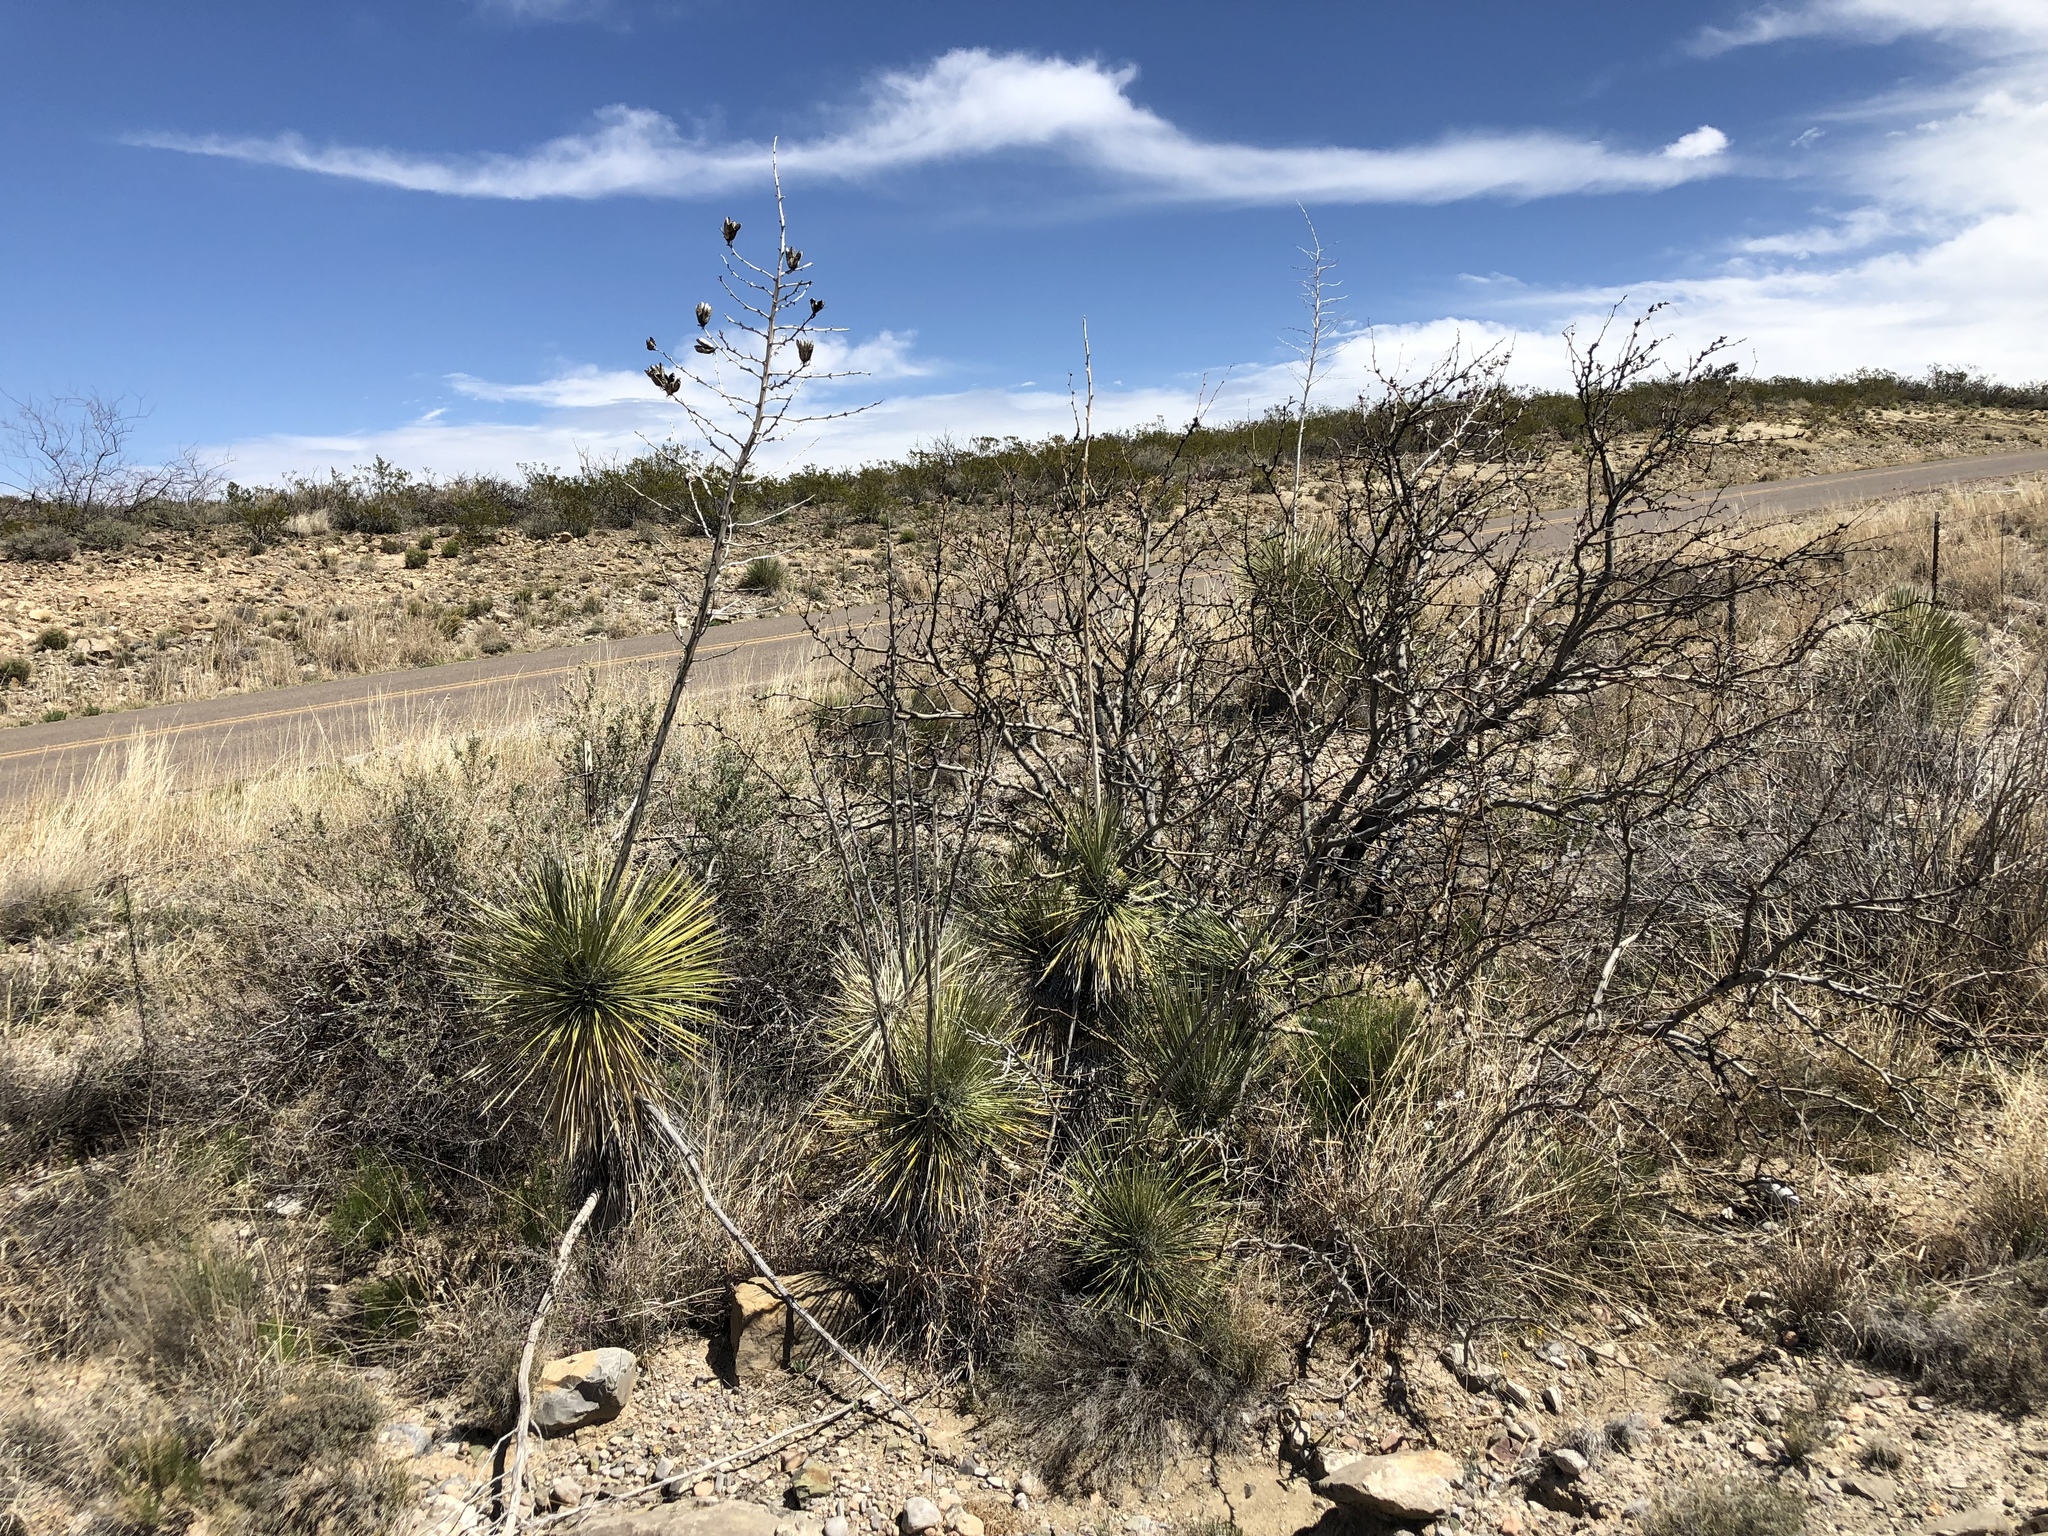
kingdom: Plantae
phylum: Tracheophyta
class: Liliopsida
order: Asparagales
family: Asparagaceae
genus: Yucca
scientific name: Yucca elata
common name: Palmella
